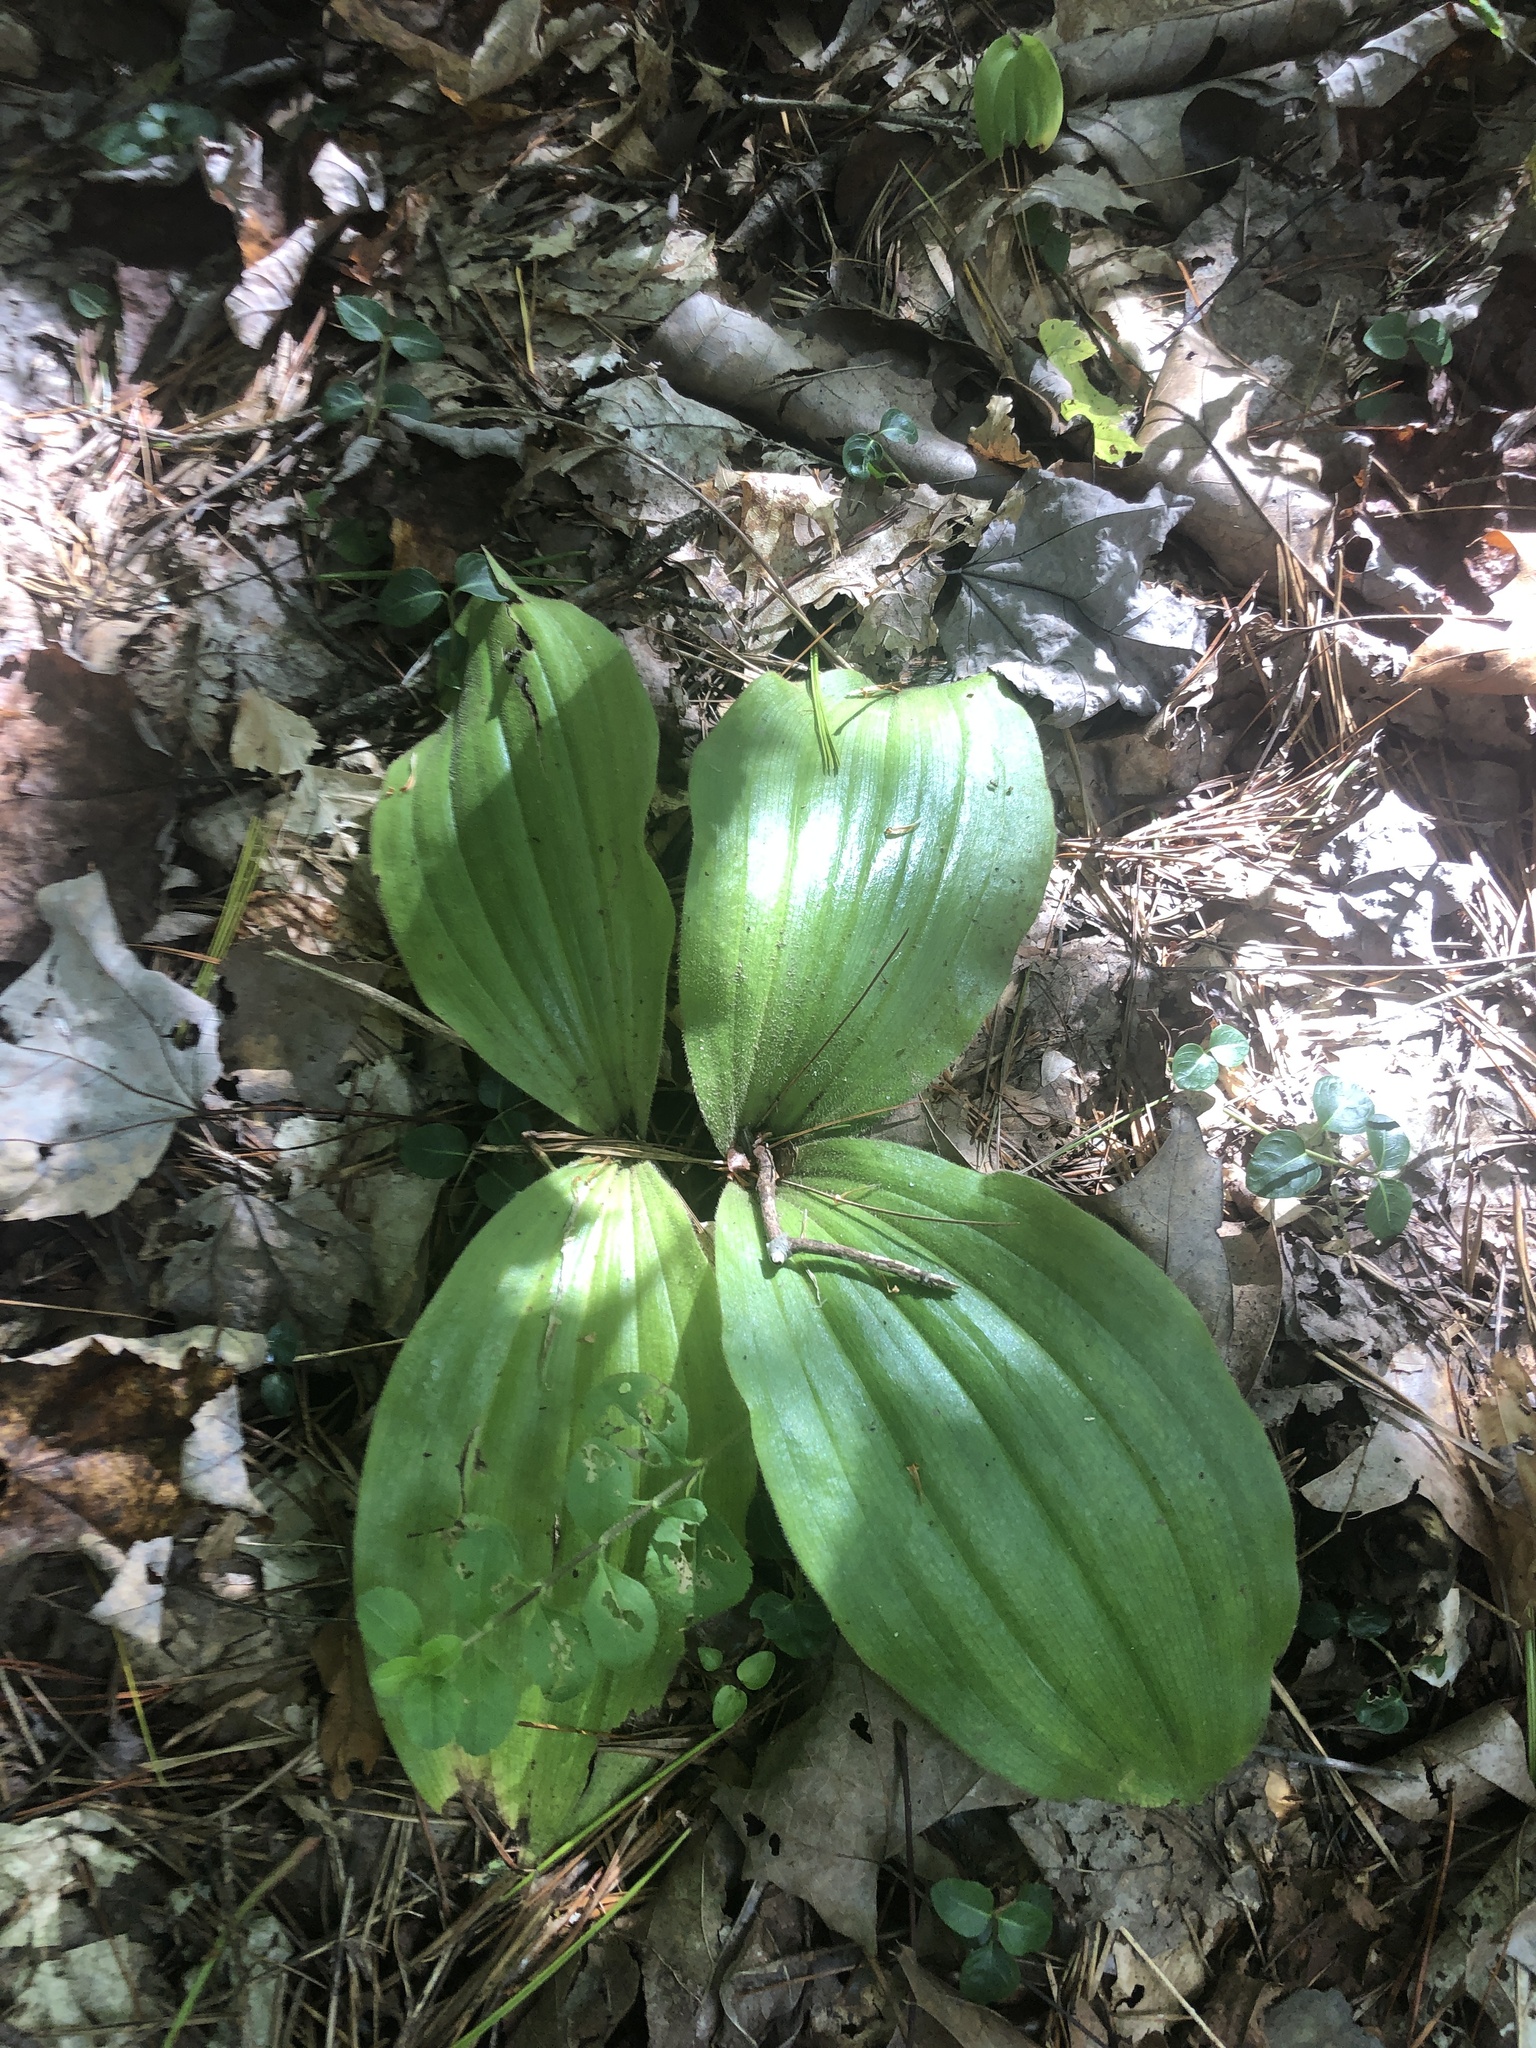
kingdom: Plantae
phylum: Tracheophyta
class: Liliopsida
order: Asparagales
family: Orchidaceae
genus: Cypripedium
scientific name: Cypripedium acaule
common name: Pink lady's-slipper
